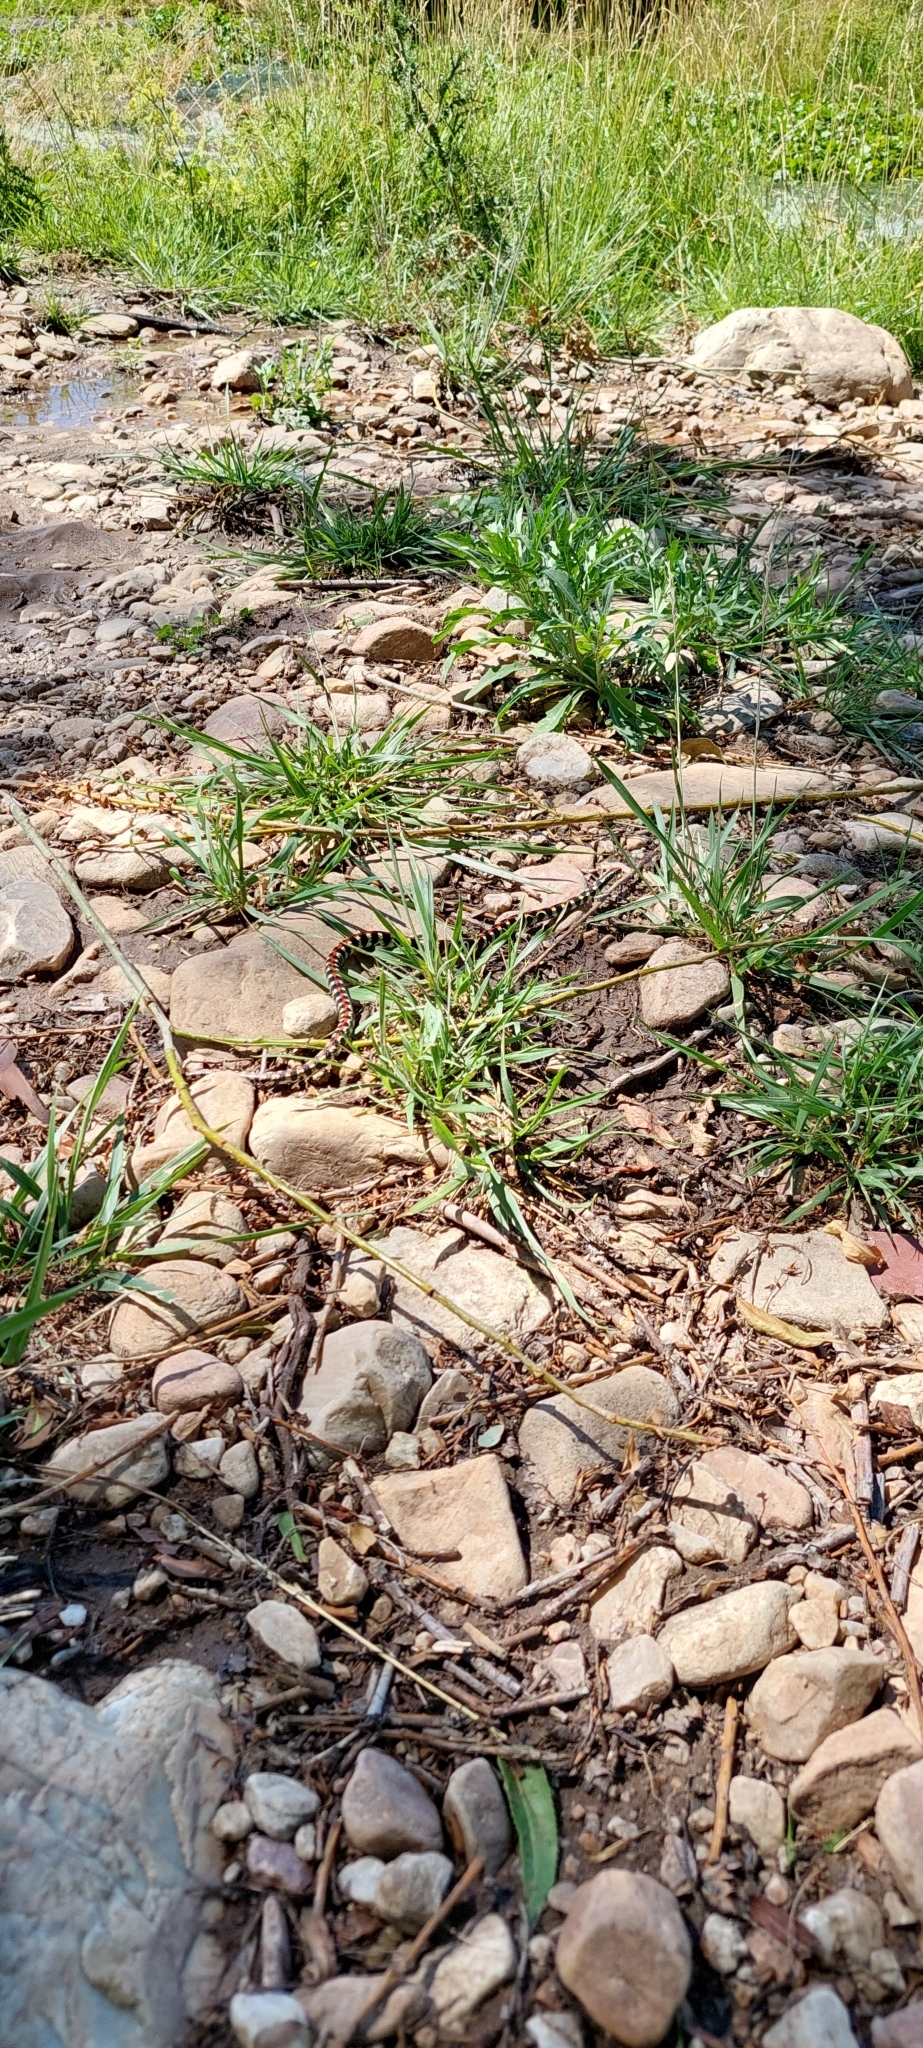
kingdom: Animalia
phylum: Chordata
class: Squamata
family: Colubridae
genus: Lygophis
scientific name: Lygophis elegantissimus
